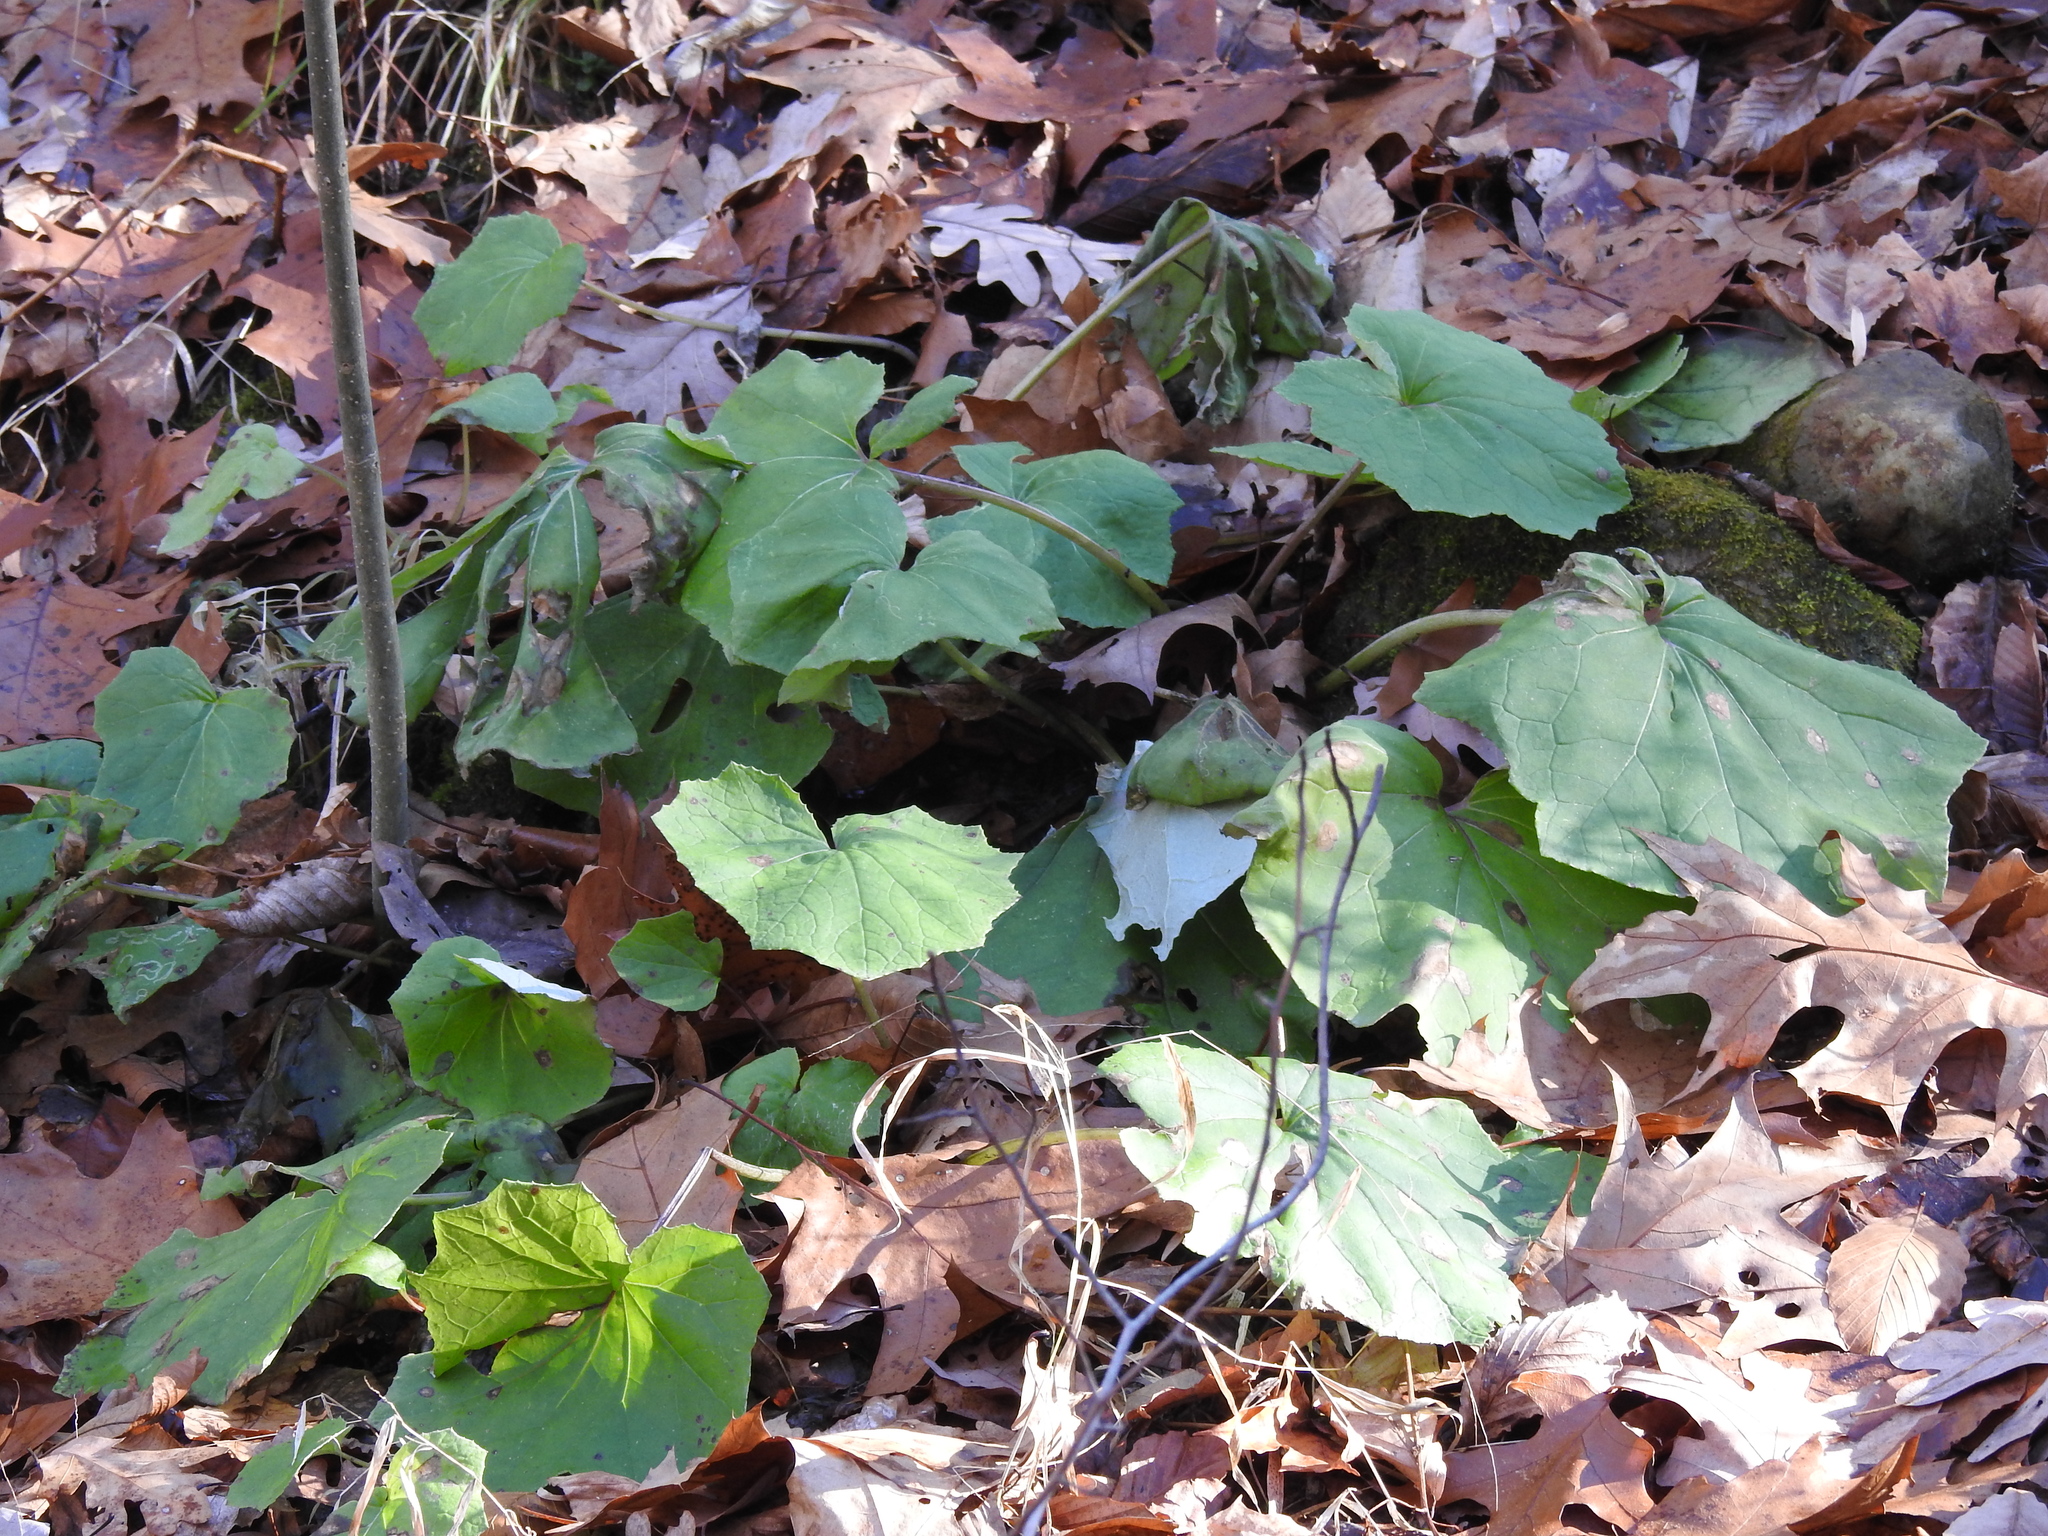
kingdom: Plantae
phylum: Tracheophyta
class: Magnoliopsida
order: Asterales
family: Asteraceae
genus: Tussilago
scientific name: Tussilago farfara
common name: Coltsfoot
